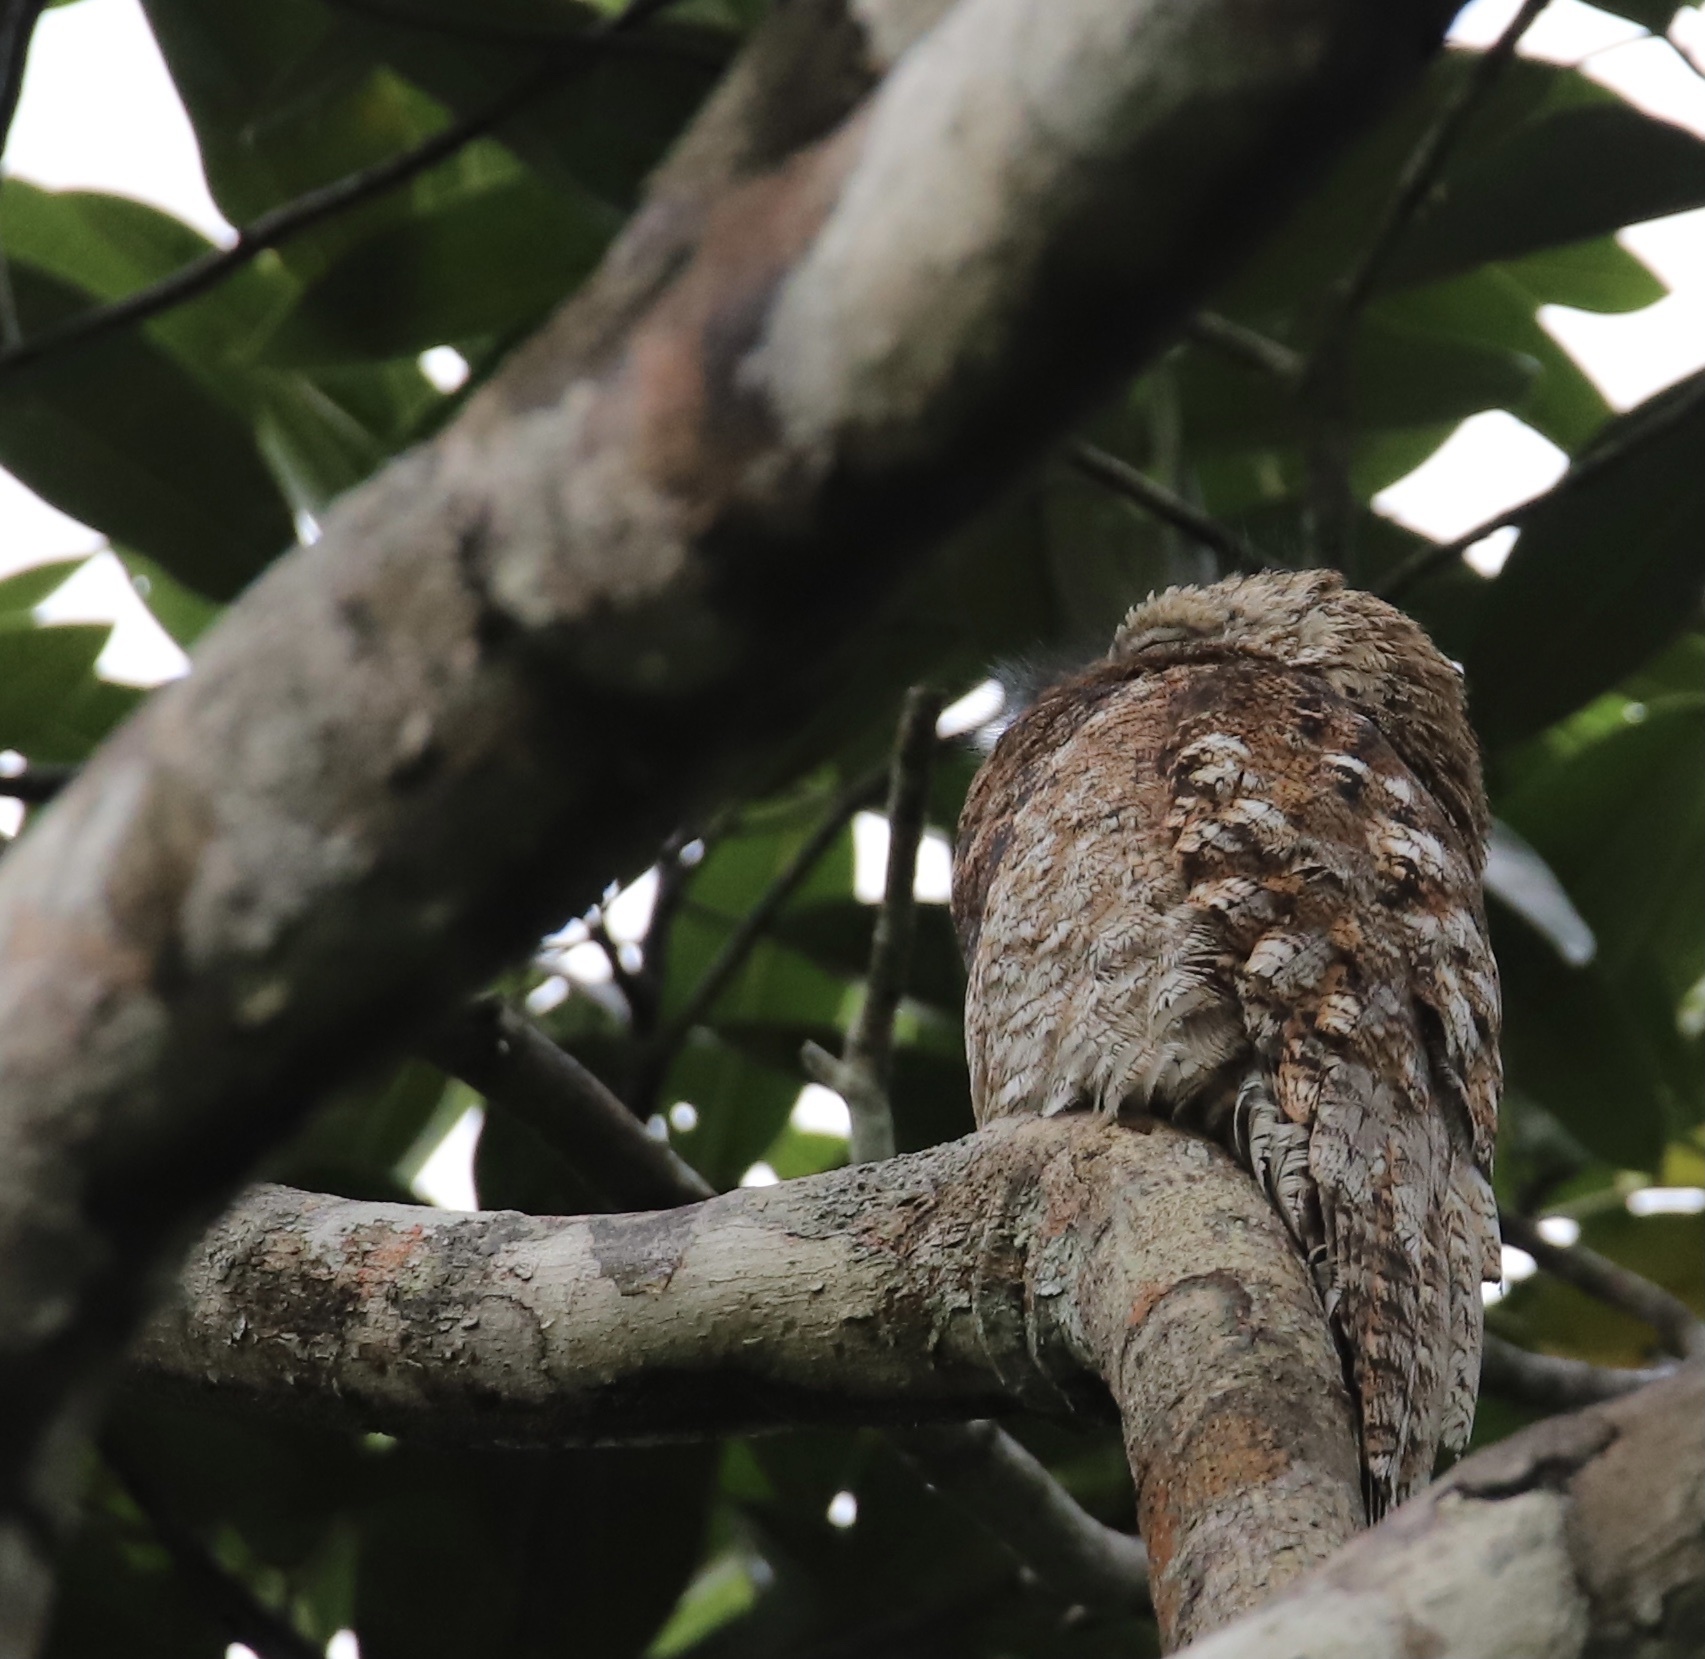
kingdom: Animalia
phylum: Chordata
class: Aves
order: Nyctibiiformes
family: Nyctibiidae
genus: Nyctibius
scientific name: Nyctibius grandis
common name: Great potoo
